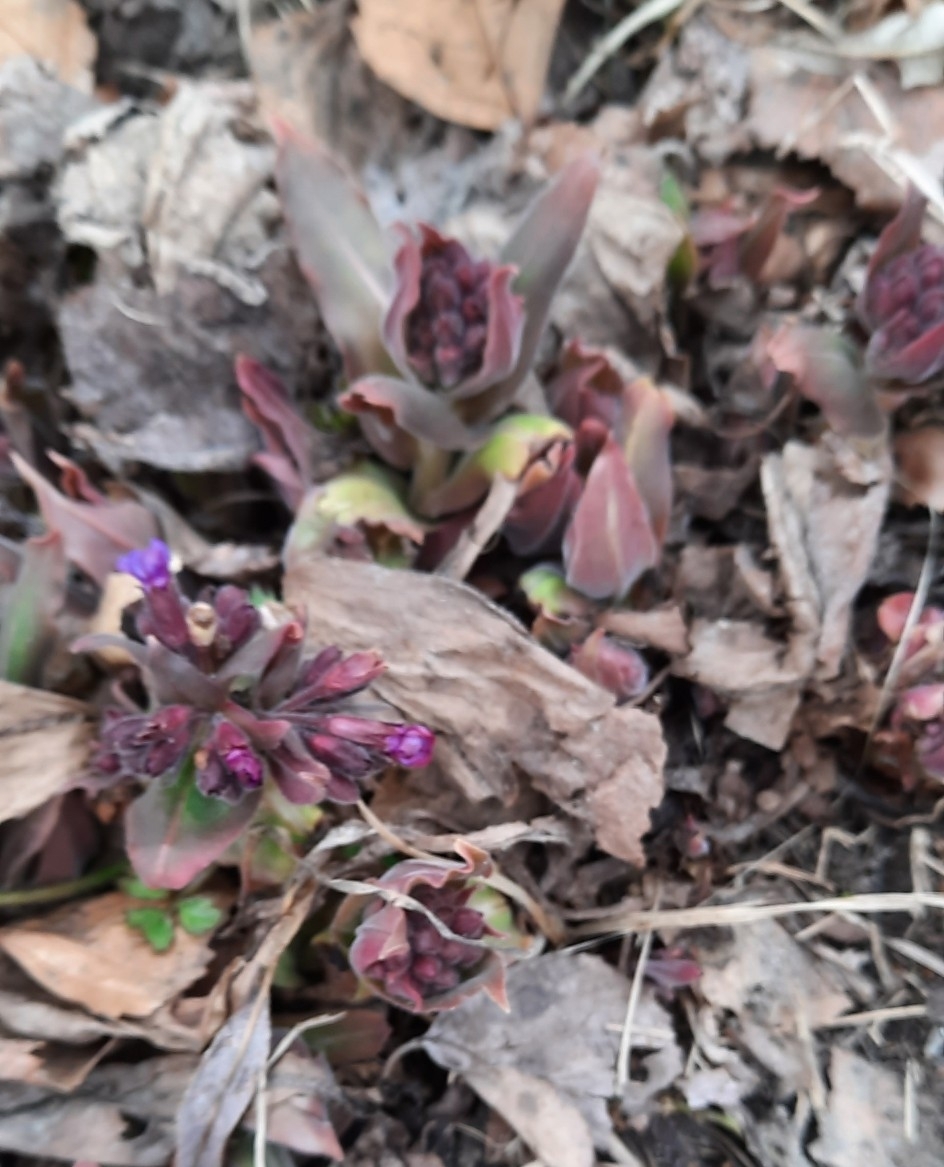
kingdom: Plantae
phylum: Tracheophyta
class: Magnoliopsida
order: Boraginales
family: Boraginaceae
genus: Pulmonaria
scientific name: Pulmonaria mollis
